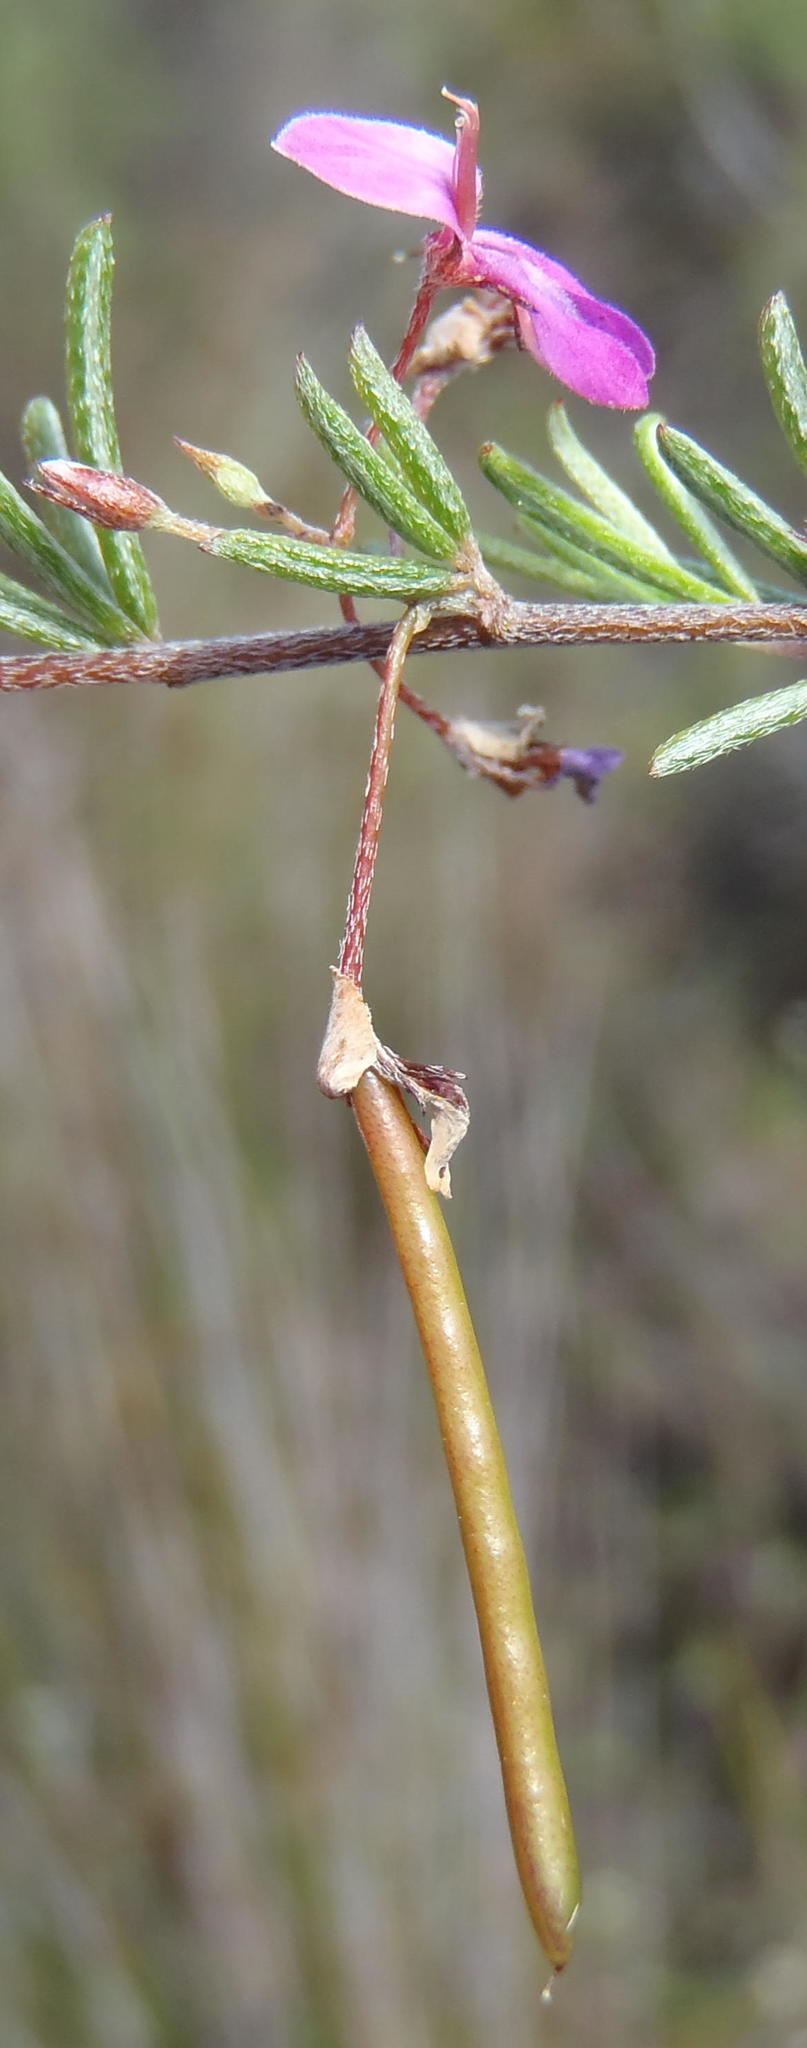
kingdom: Plantae
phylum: Tracheophyta
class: Magnoliopsida
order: Fabales
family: Fabaceae
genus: Indigofera
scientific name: Indigofera setosa
